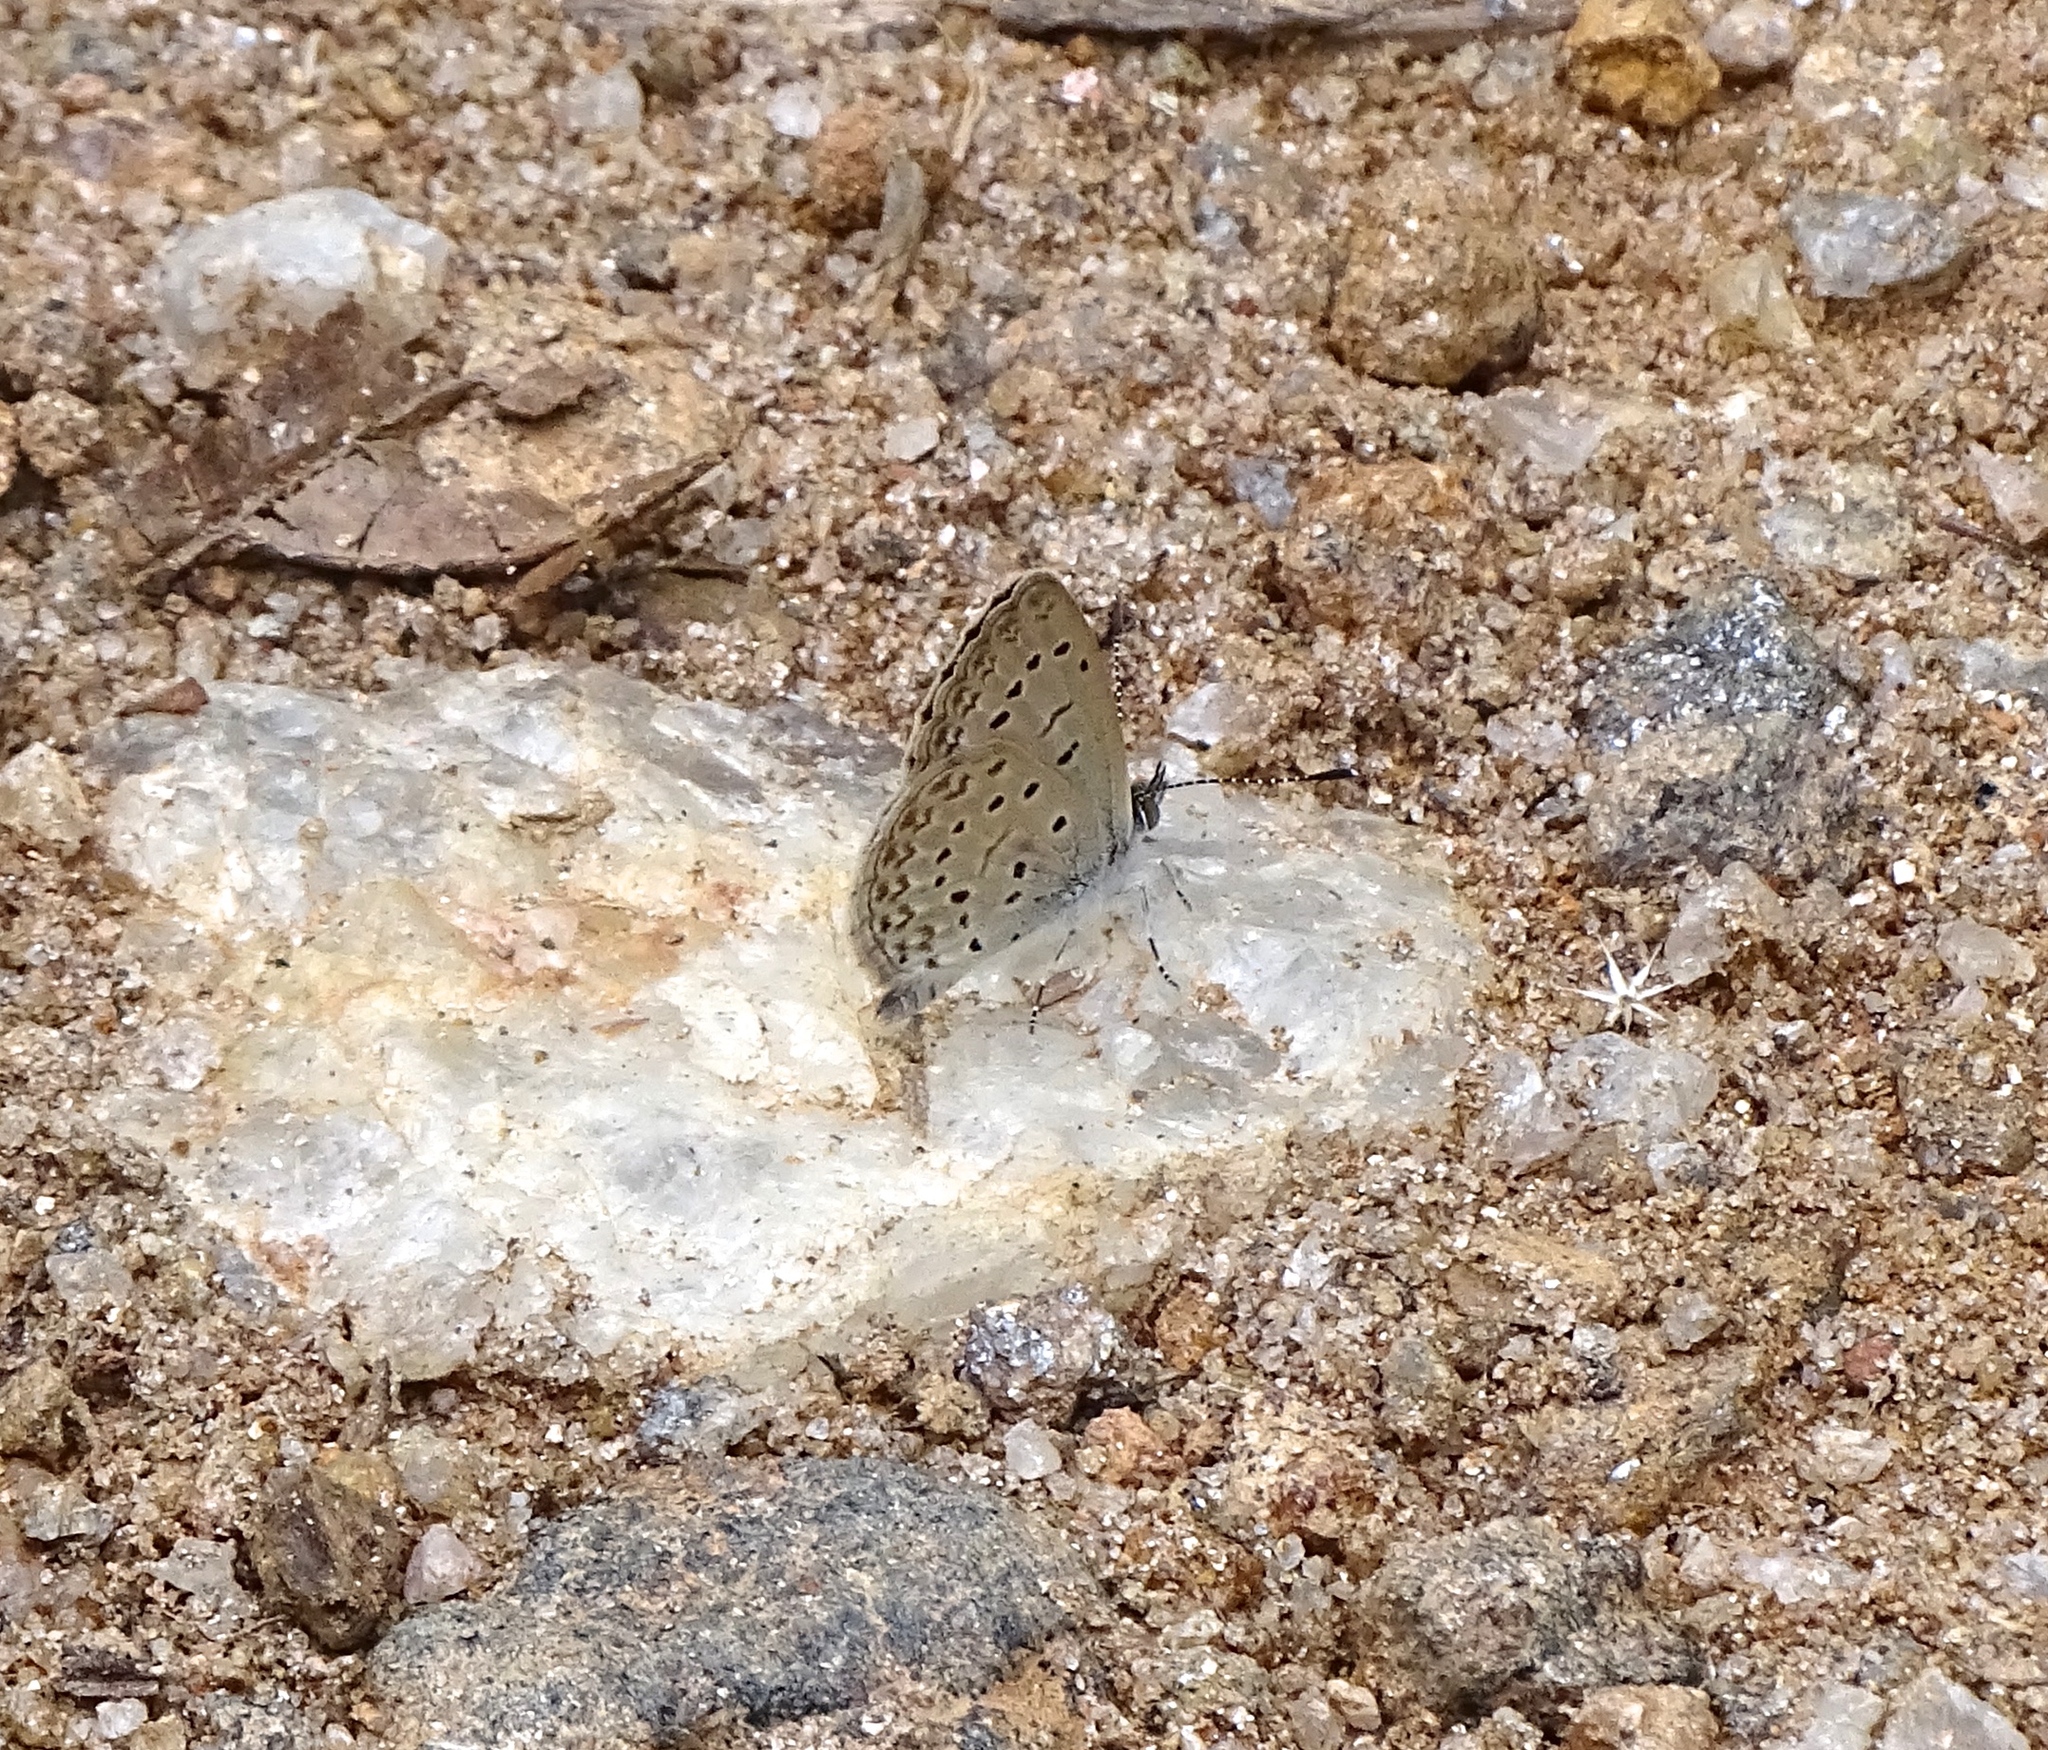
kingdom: Animalia
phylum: Arthropoda
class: Insecta
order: Lepidoptera
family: Lycaenidae
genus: Zizeeria
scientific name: Zizeeria knysna
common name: African grass blue
